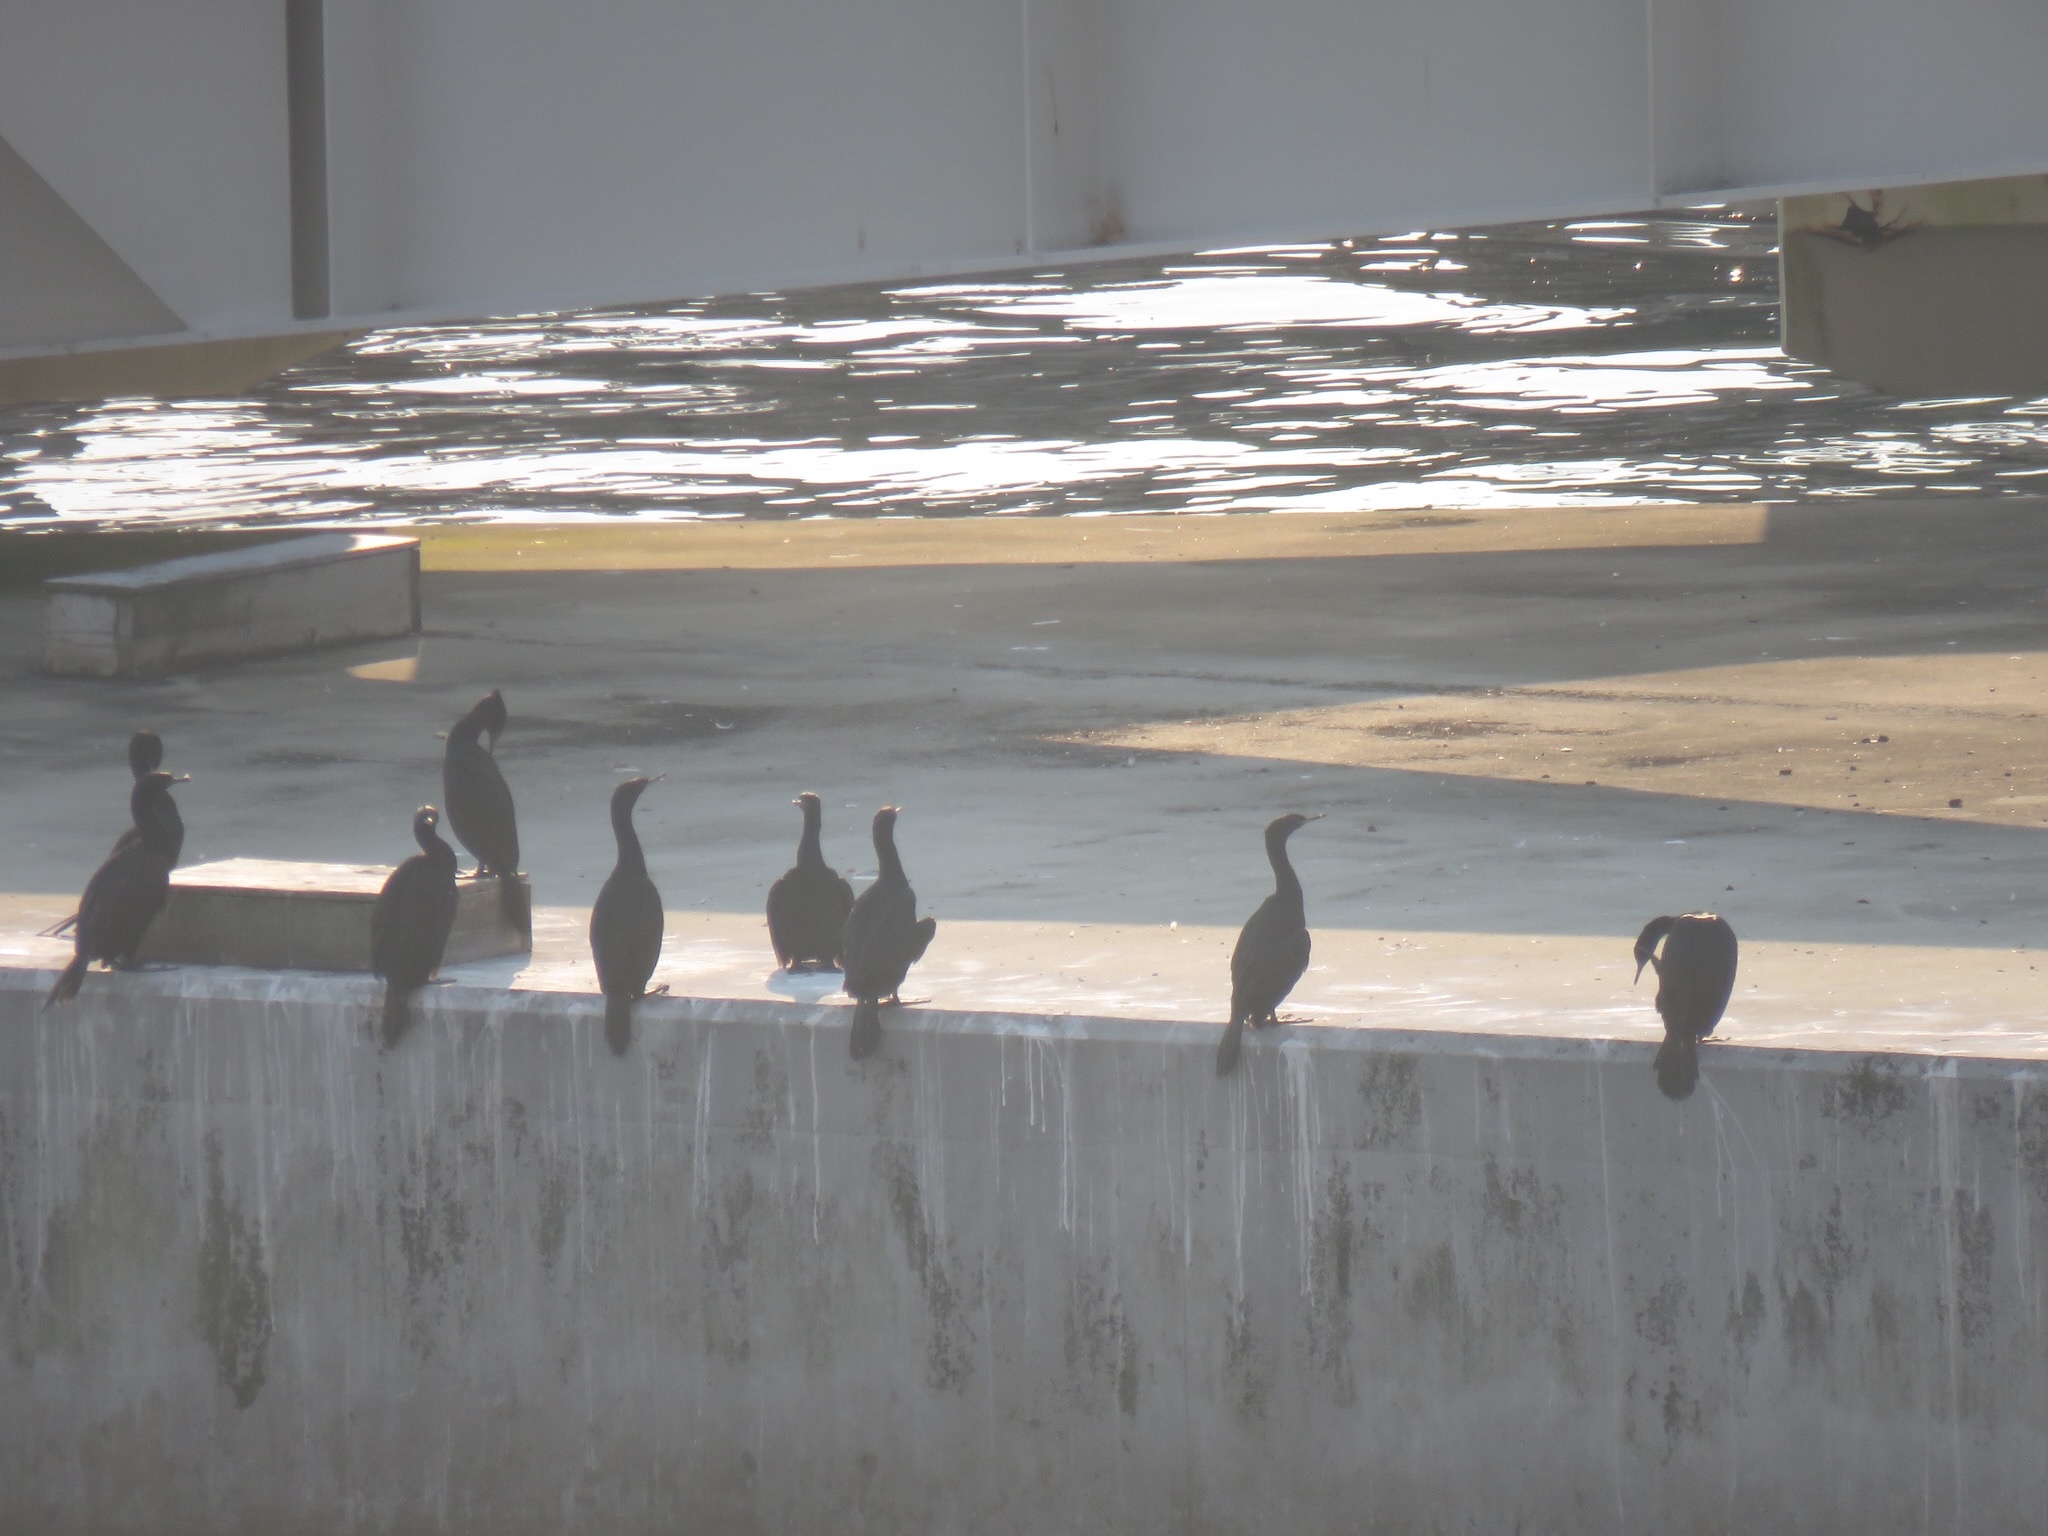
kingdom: Animalia
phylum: Chordata
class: Aves
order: Suliformes
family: Phalacrocoracidae
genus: Phalacrocorax
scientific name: Phalacrocorax pelagicus
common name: Pelagic cormorant
